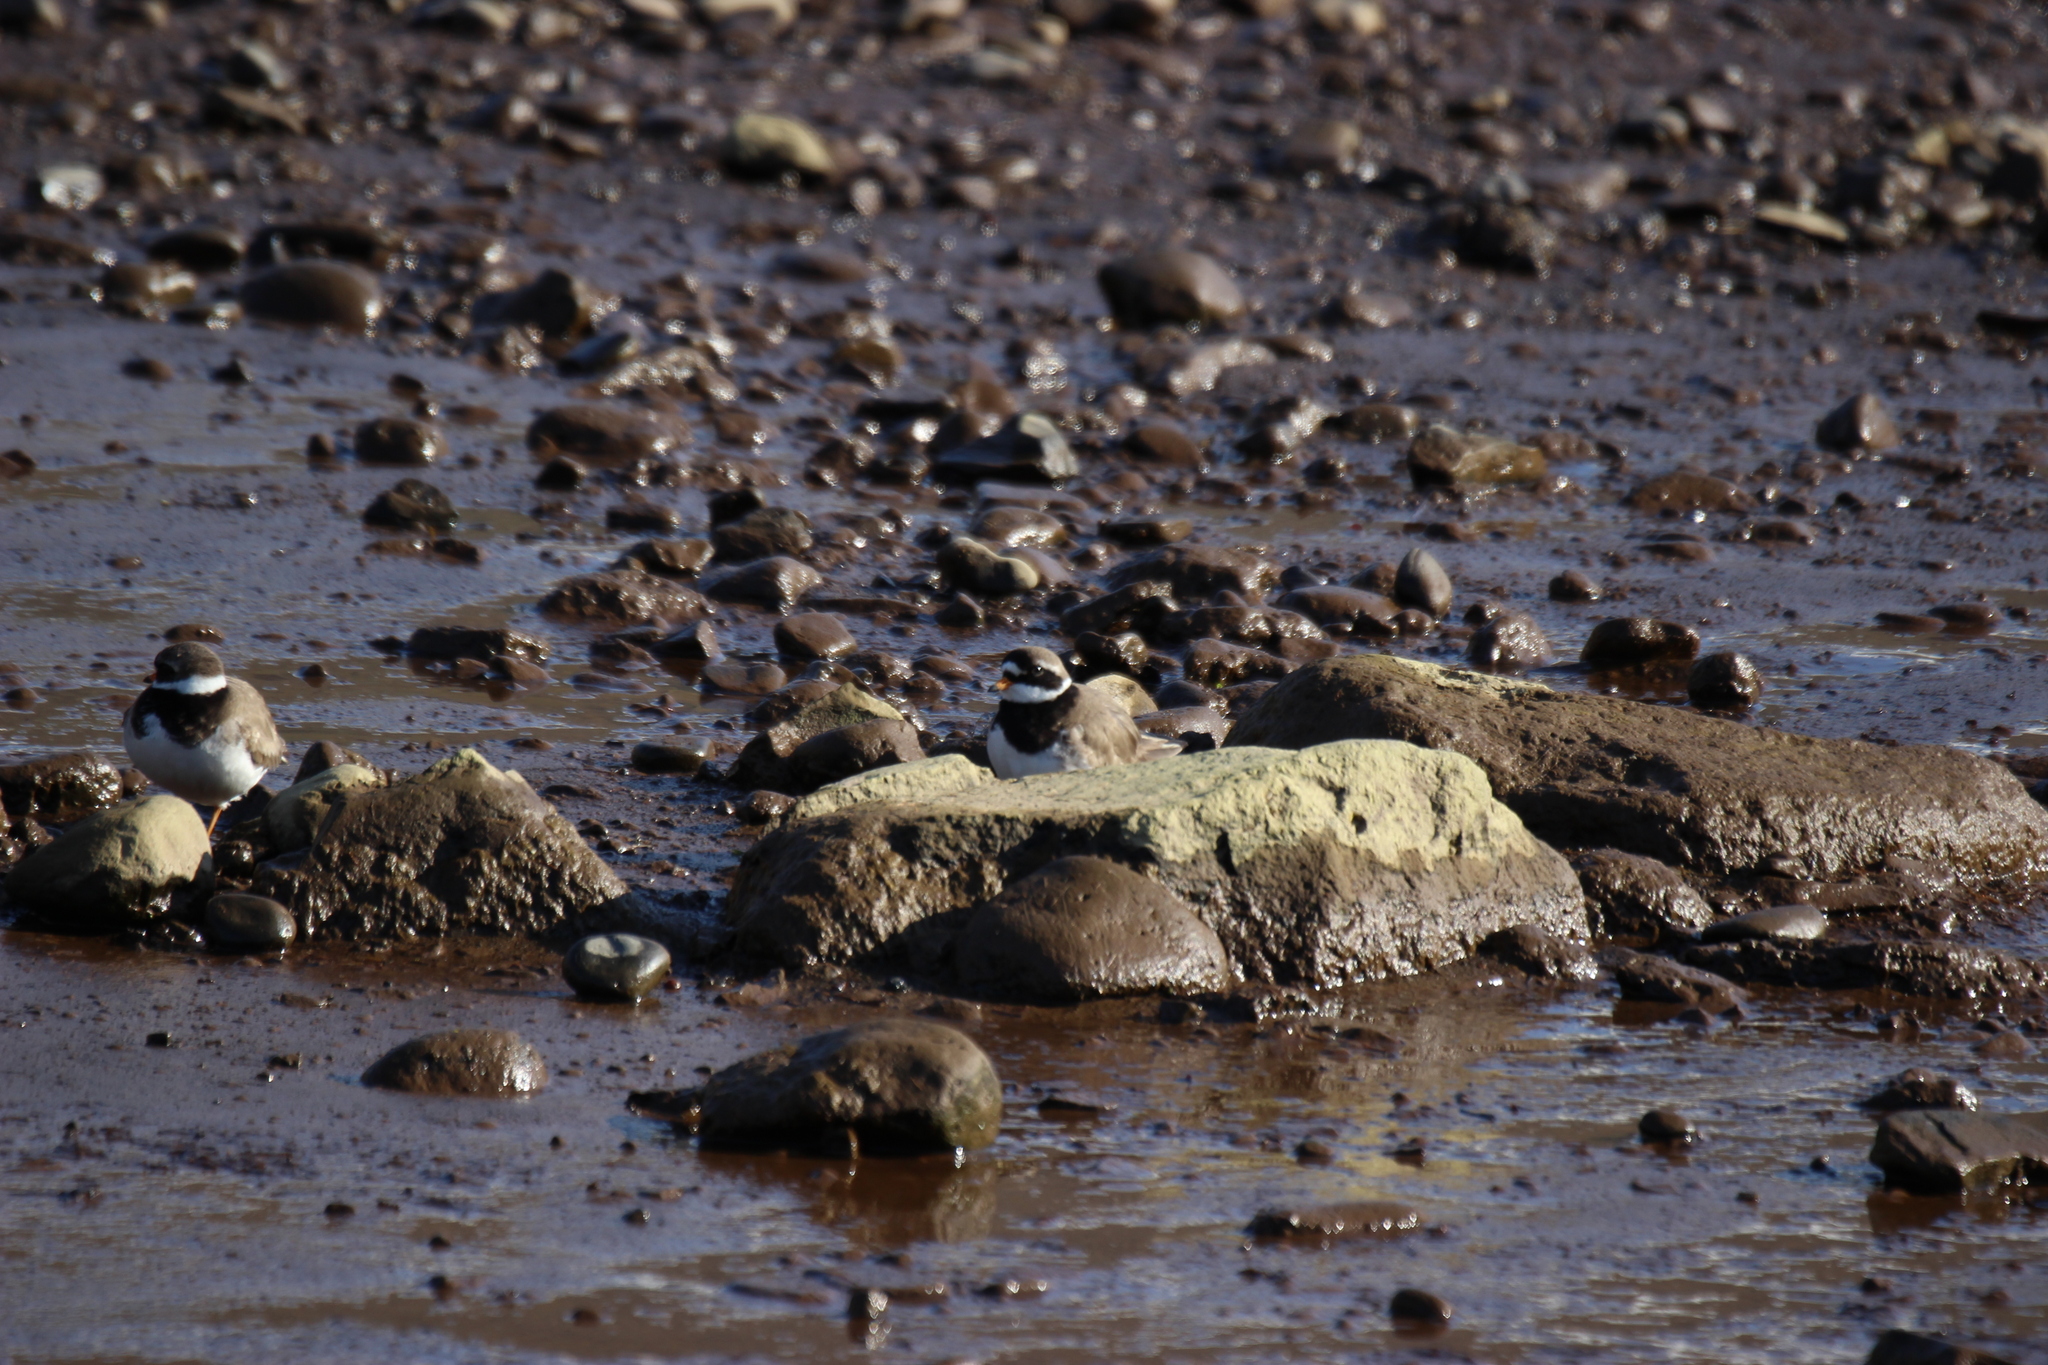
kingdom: Animalia
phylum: Chordata
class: Aves
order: Charadriiformes
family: Charadriidae
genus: Charadrius
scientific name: Charadrius hiaticula
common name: Common ringed plover
